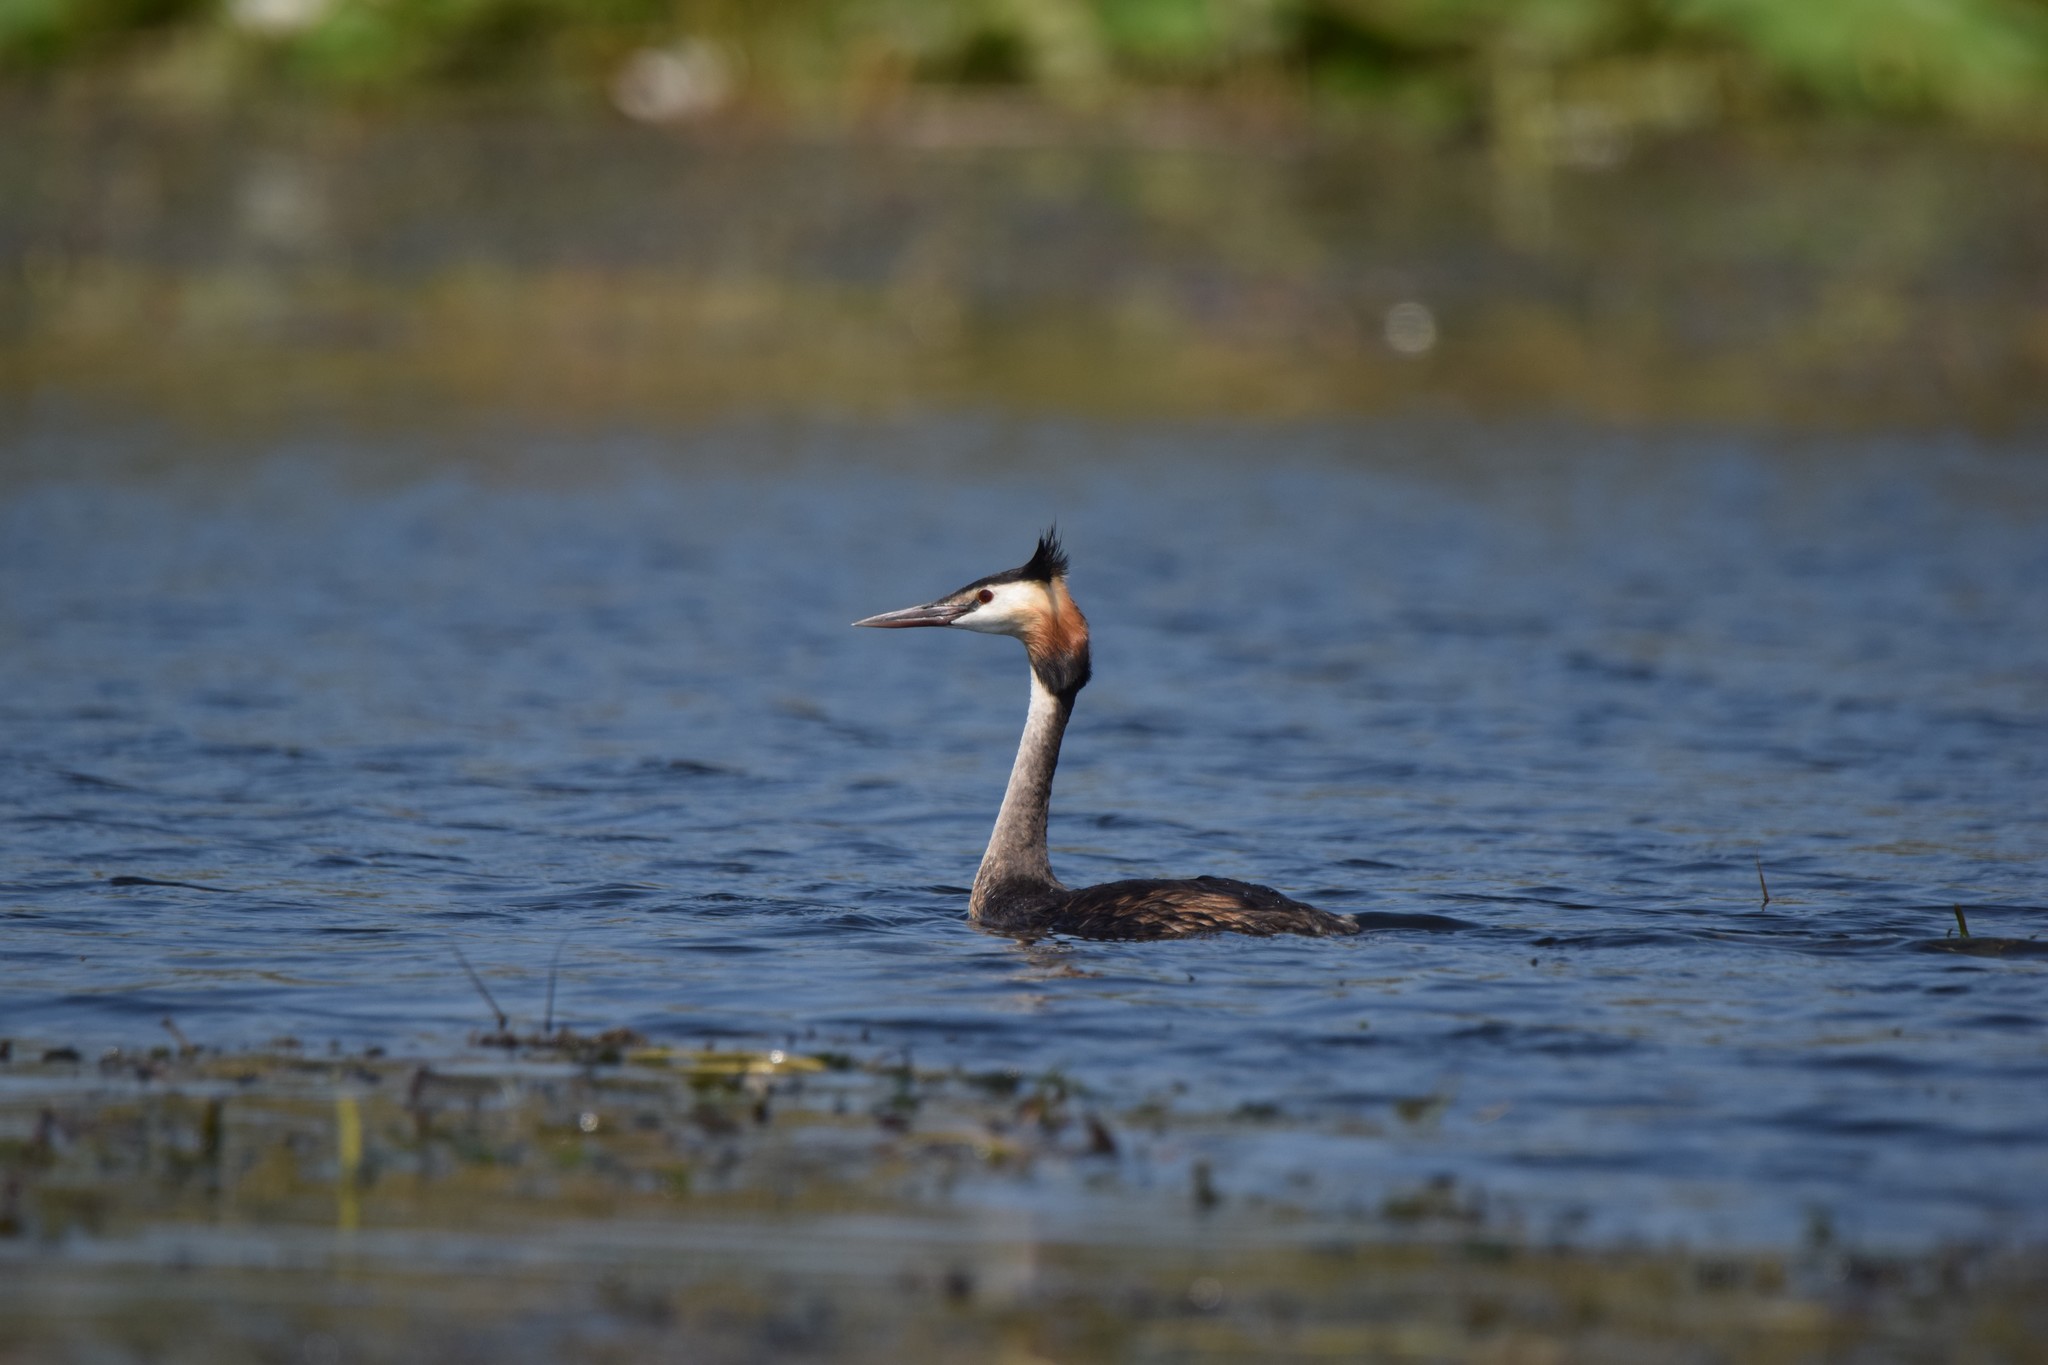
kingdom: Animalia
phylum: Chordata
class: Aves
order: Podicipediformes
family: Podicipedidae
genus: Podiceps
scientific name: Podiceps cristatus
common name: Great crested grebe
